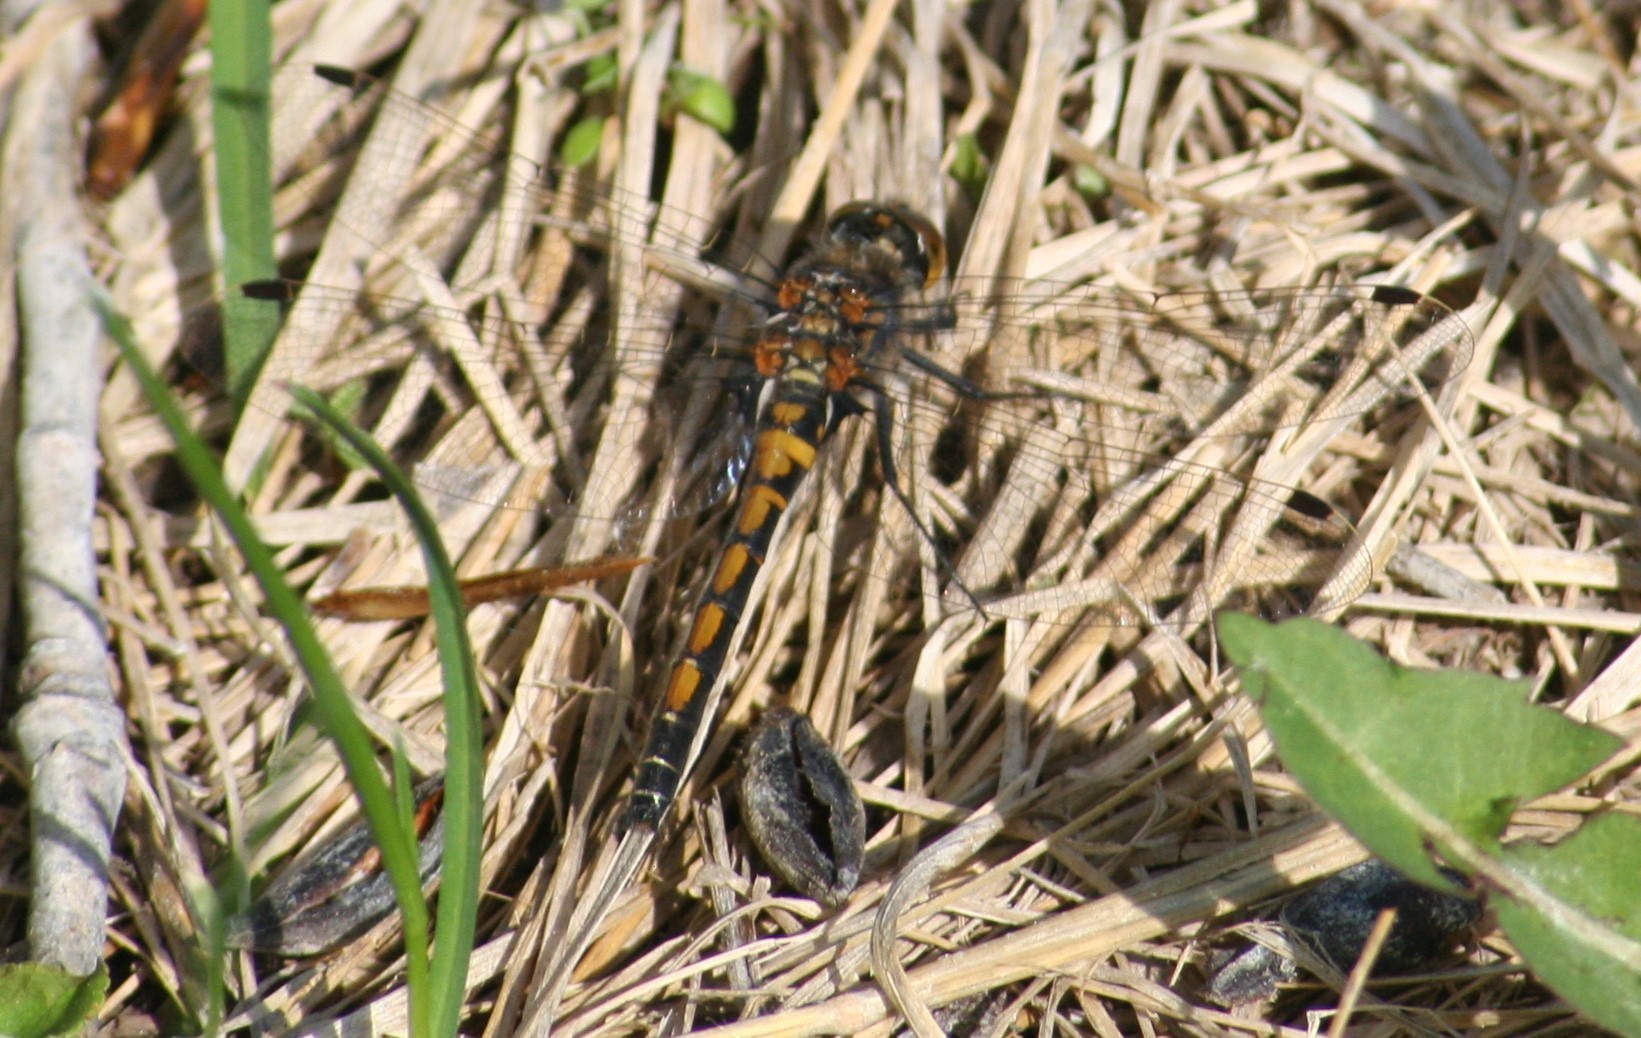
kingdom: Animalia
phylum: Arthropoda
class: Insecta
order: Odonata
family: Libellulidae
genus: Leucorrhinia
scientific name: Leucorrhinia hudsonica
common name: Hudsonian whiteface
